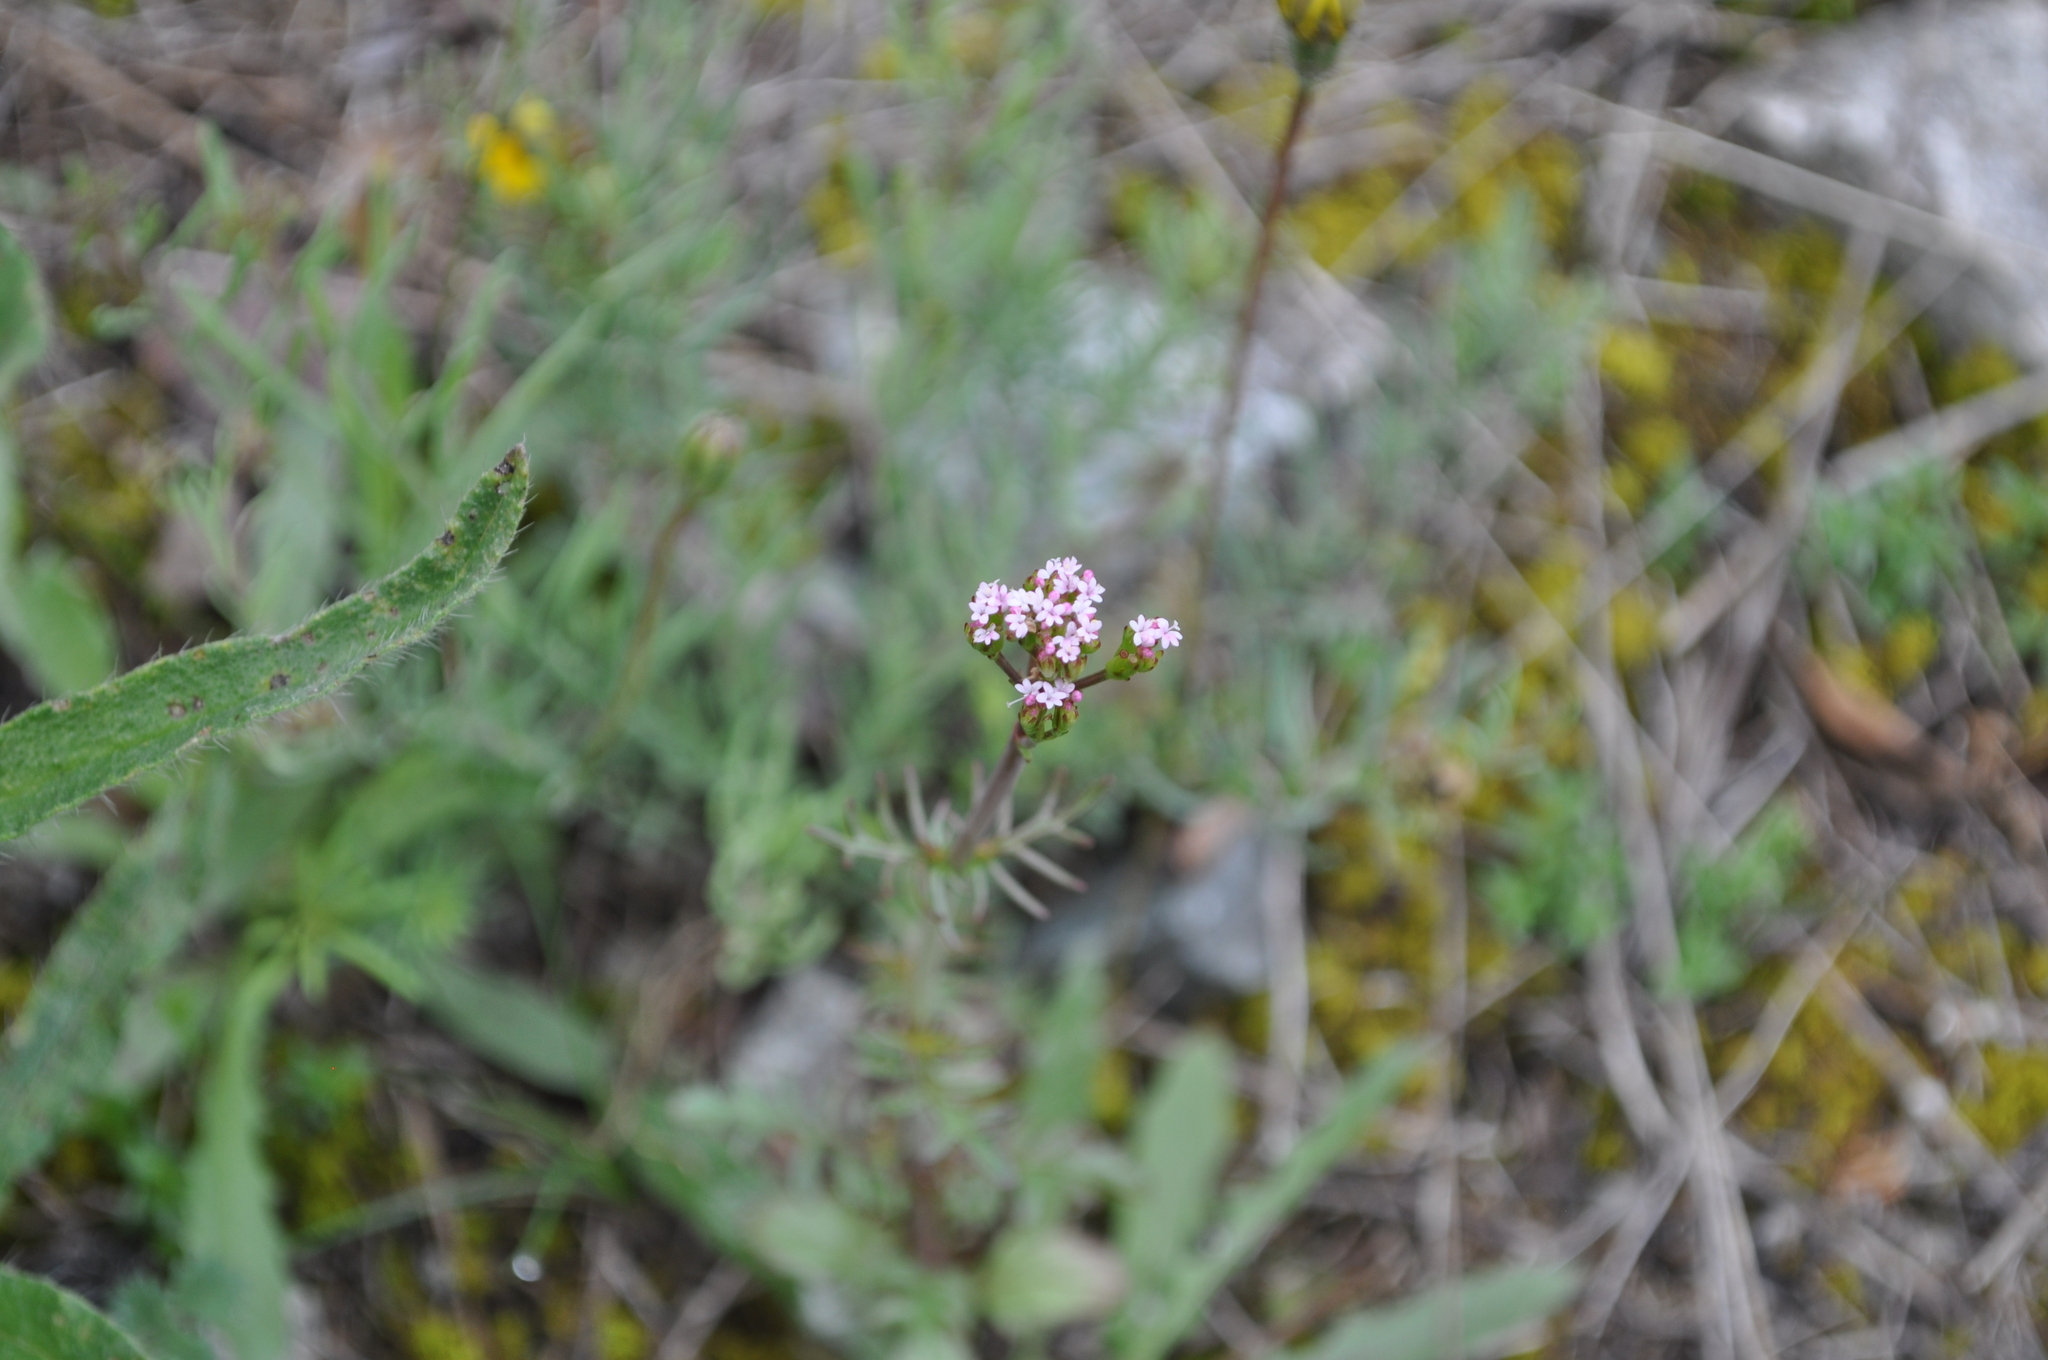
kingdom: Plantae
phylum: Tracheophyta
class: Magnoliopsida
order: Dipsacales
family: Caprifoliaceae
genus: Centranthus
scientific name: Centranthus calcitrapae
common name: Annual valerian
